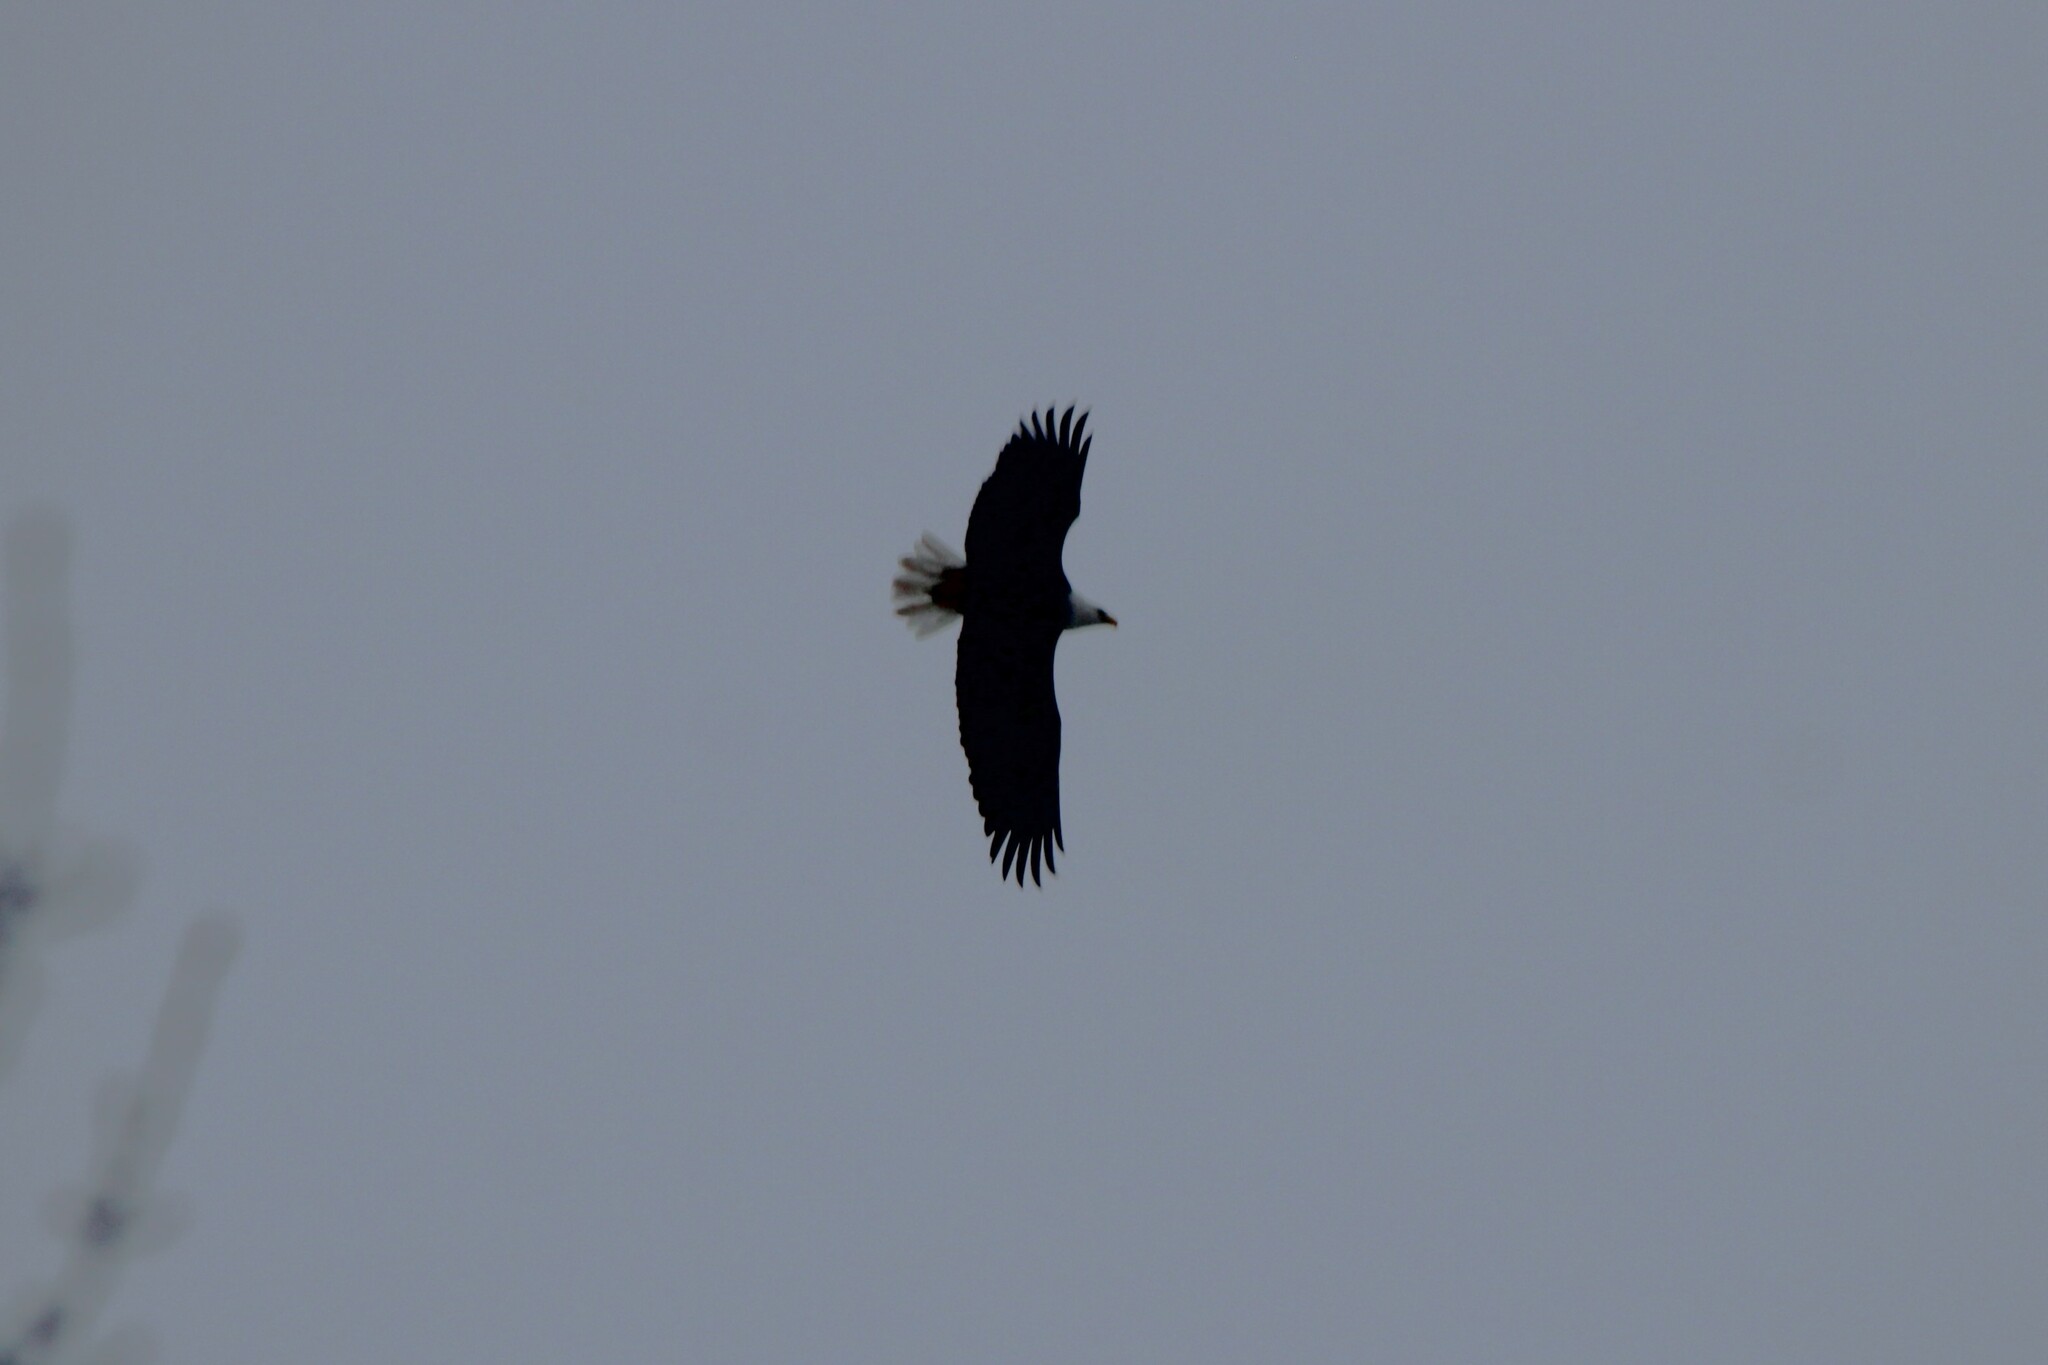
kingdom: Animalia
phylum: Chordata
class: Aves
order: Accipitriformes
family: Accipitridae
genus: Haliaeetus
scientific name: Haliaeetus leucocephalus
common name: Bald eagle
